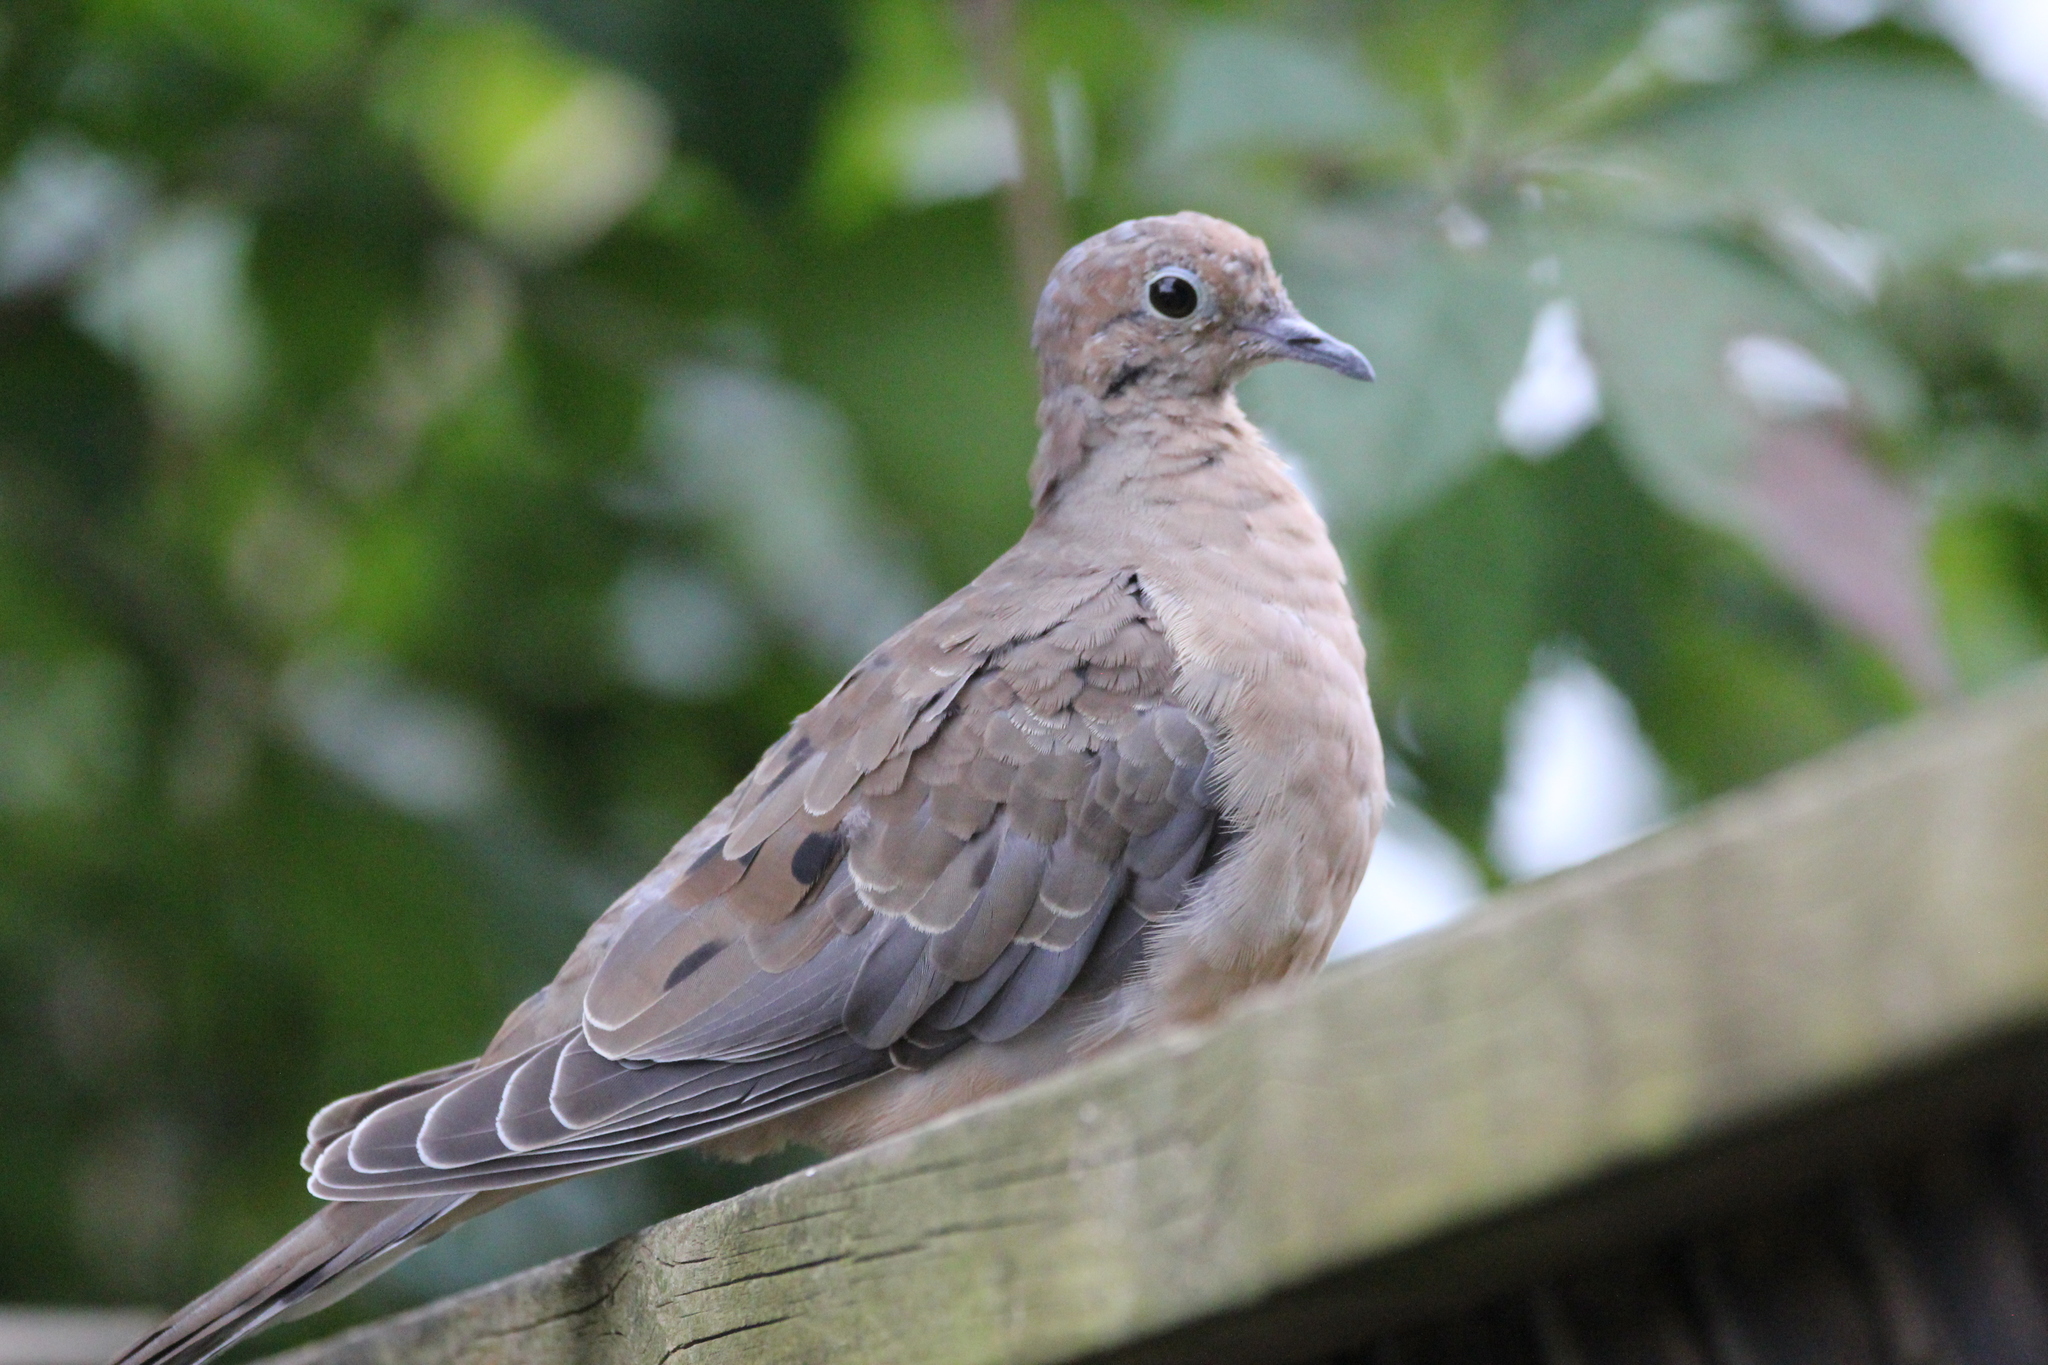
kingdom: Animalia
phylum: Chordata
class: Aves
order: Columbiformes
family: Columbidae
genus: Zenaida
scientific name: Zenaida macroura
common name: Mourning dove
